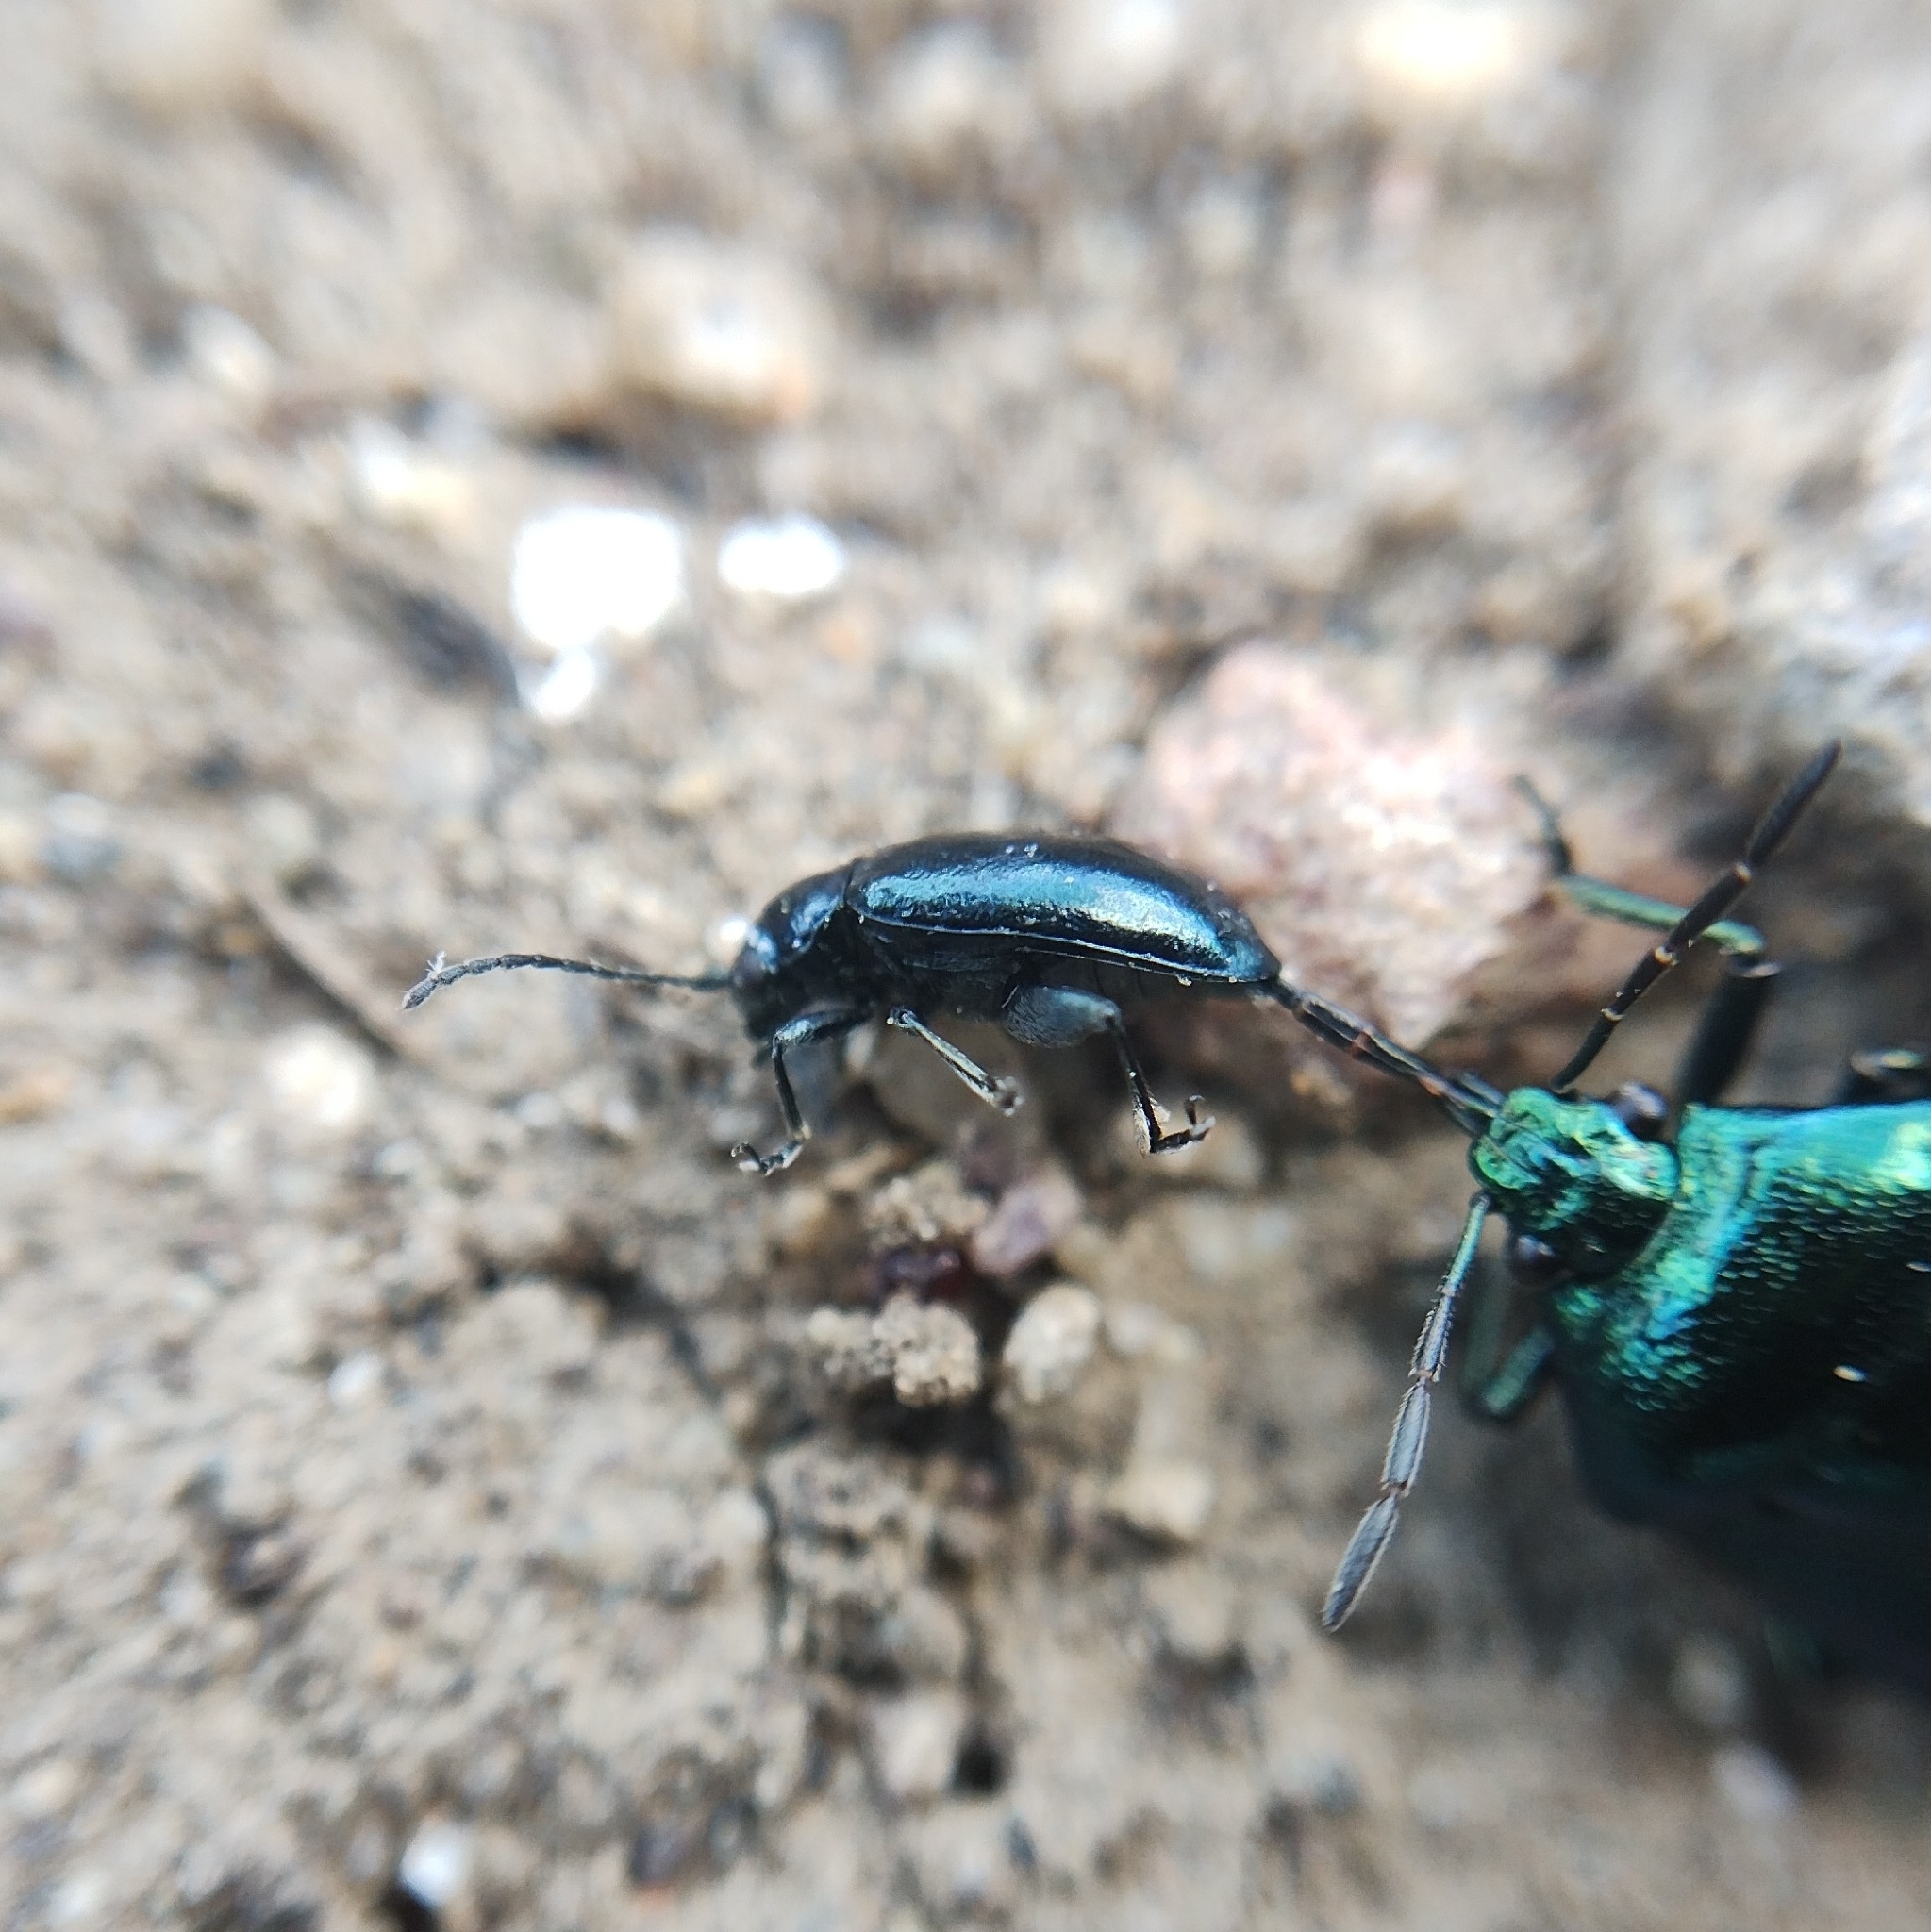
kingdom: Animalia
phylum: Arthropoda
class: Insecta
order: Hemiptera
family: Pentatomidae
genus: Zicrona
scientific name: Zicrona caerulea
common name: Blue shieldbug
